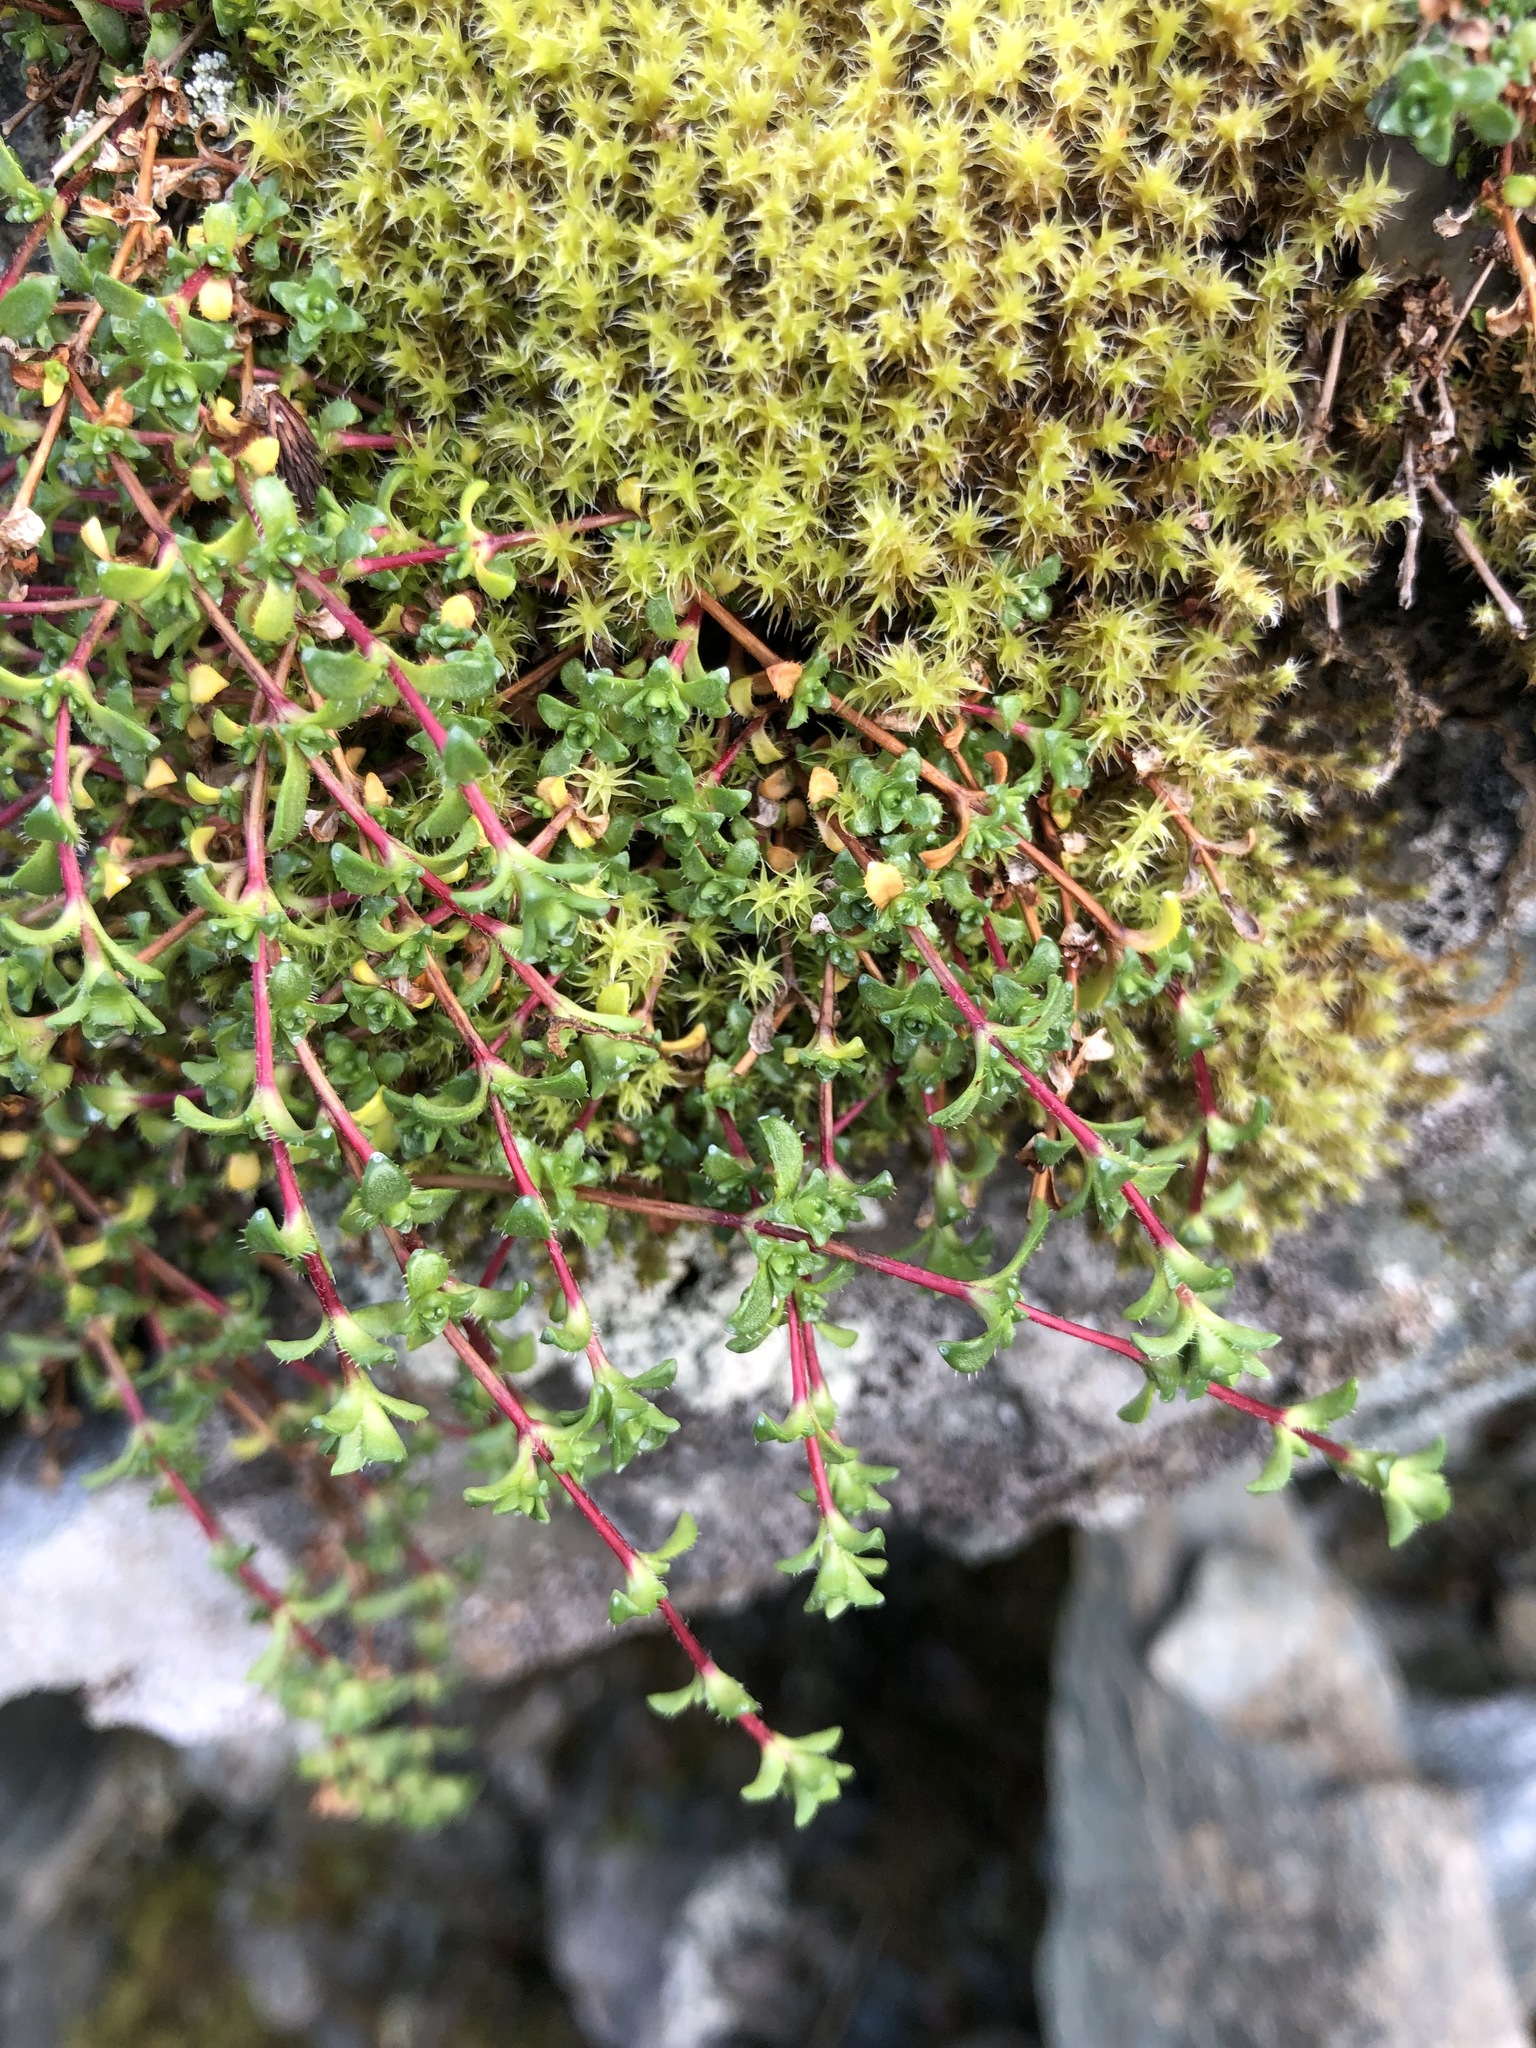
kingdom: Plantae
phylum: Tracheophyta
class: Magnoliopsida
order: Saxifragales
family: Saxifragaceae
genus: Saxifraga
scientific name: Saxifraga oppositifolia
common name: Purple saxifrage
